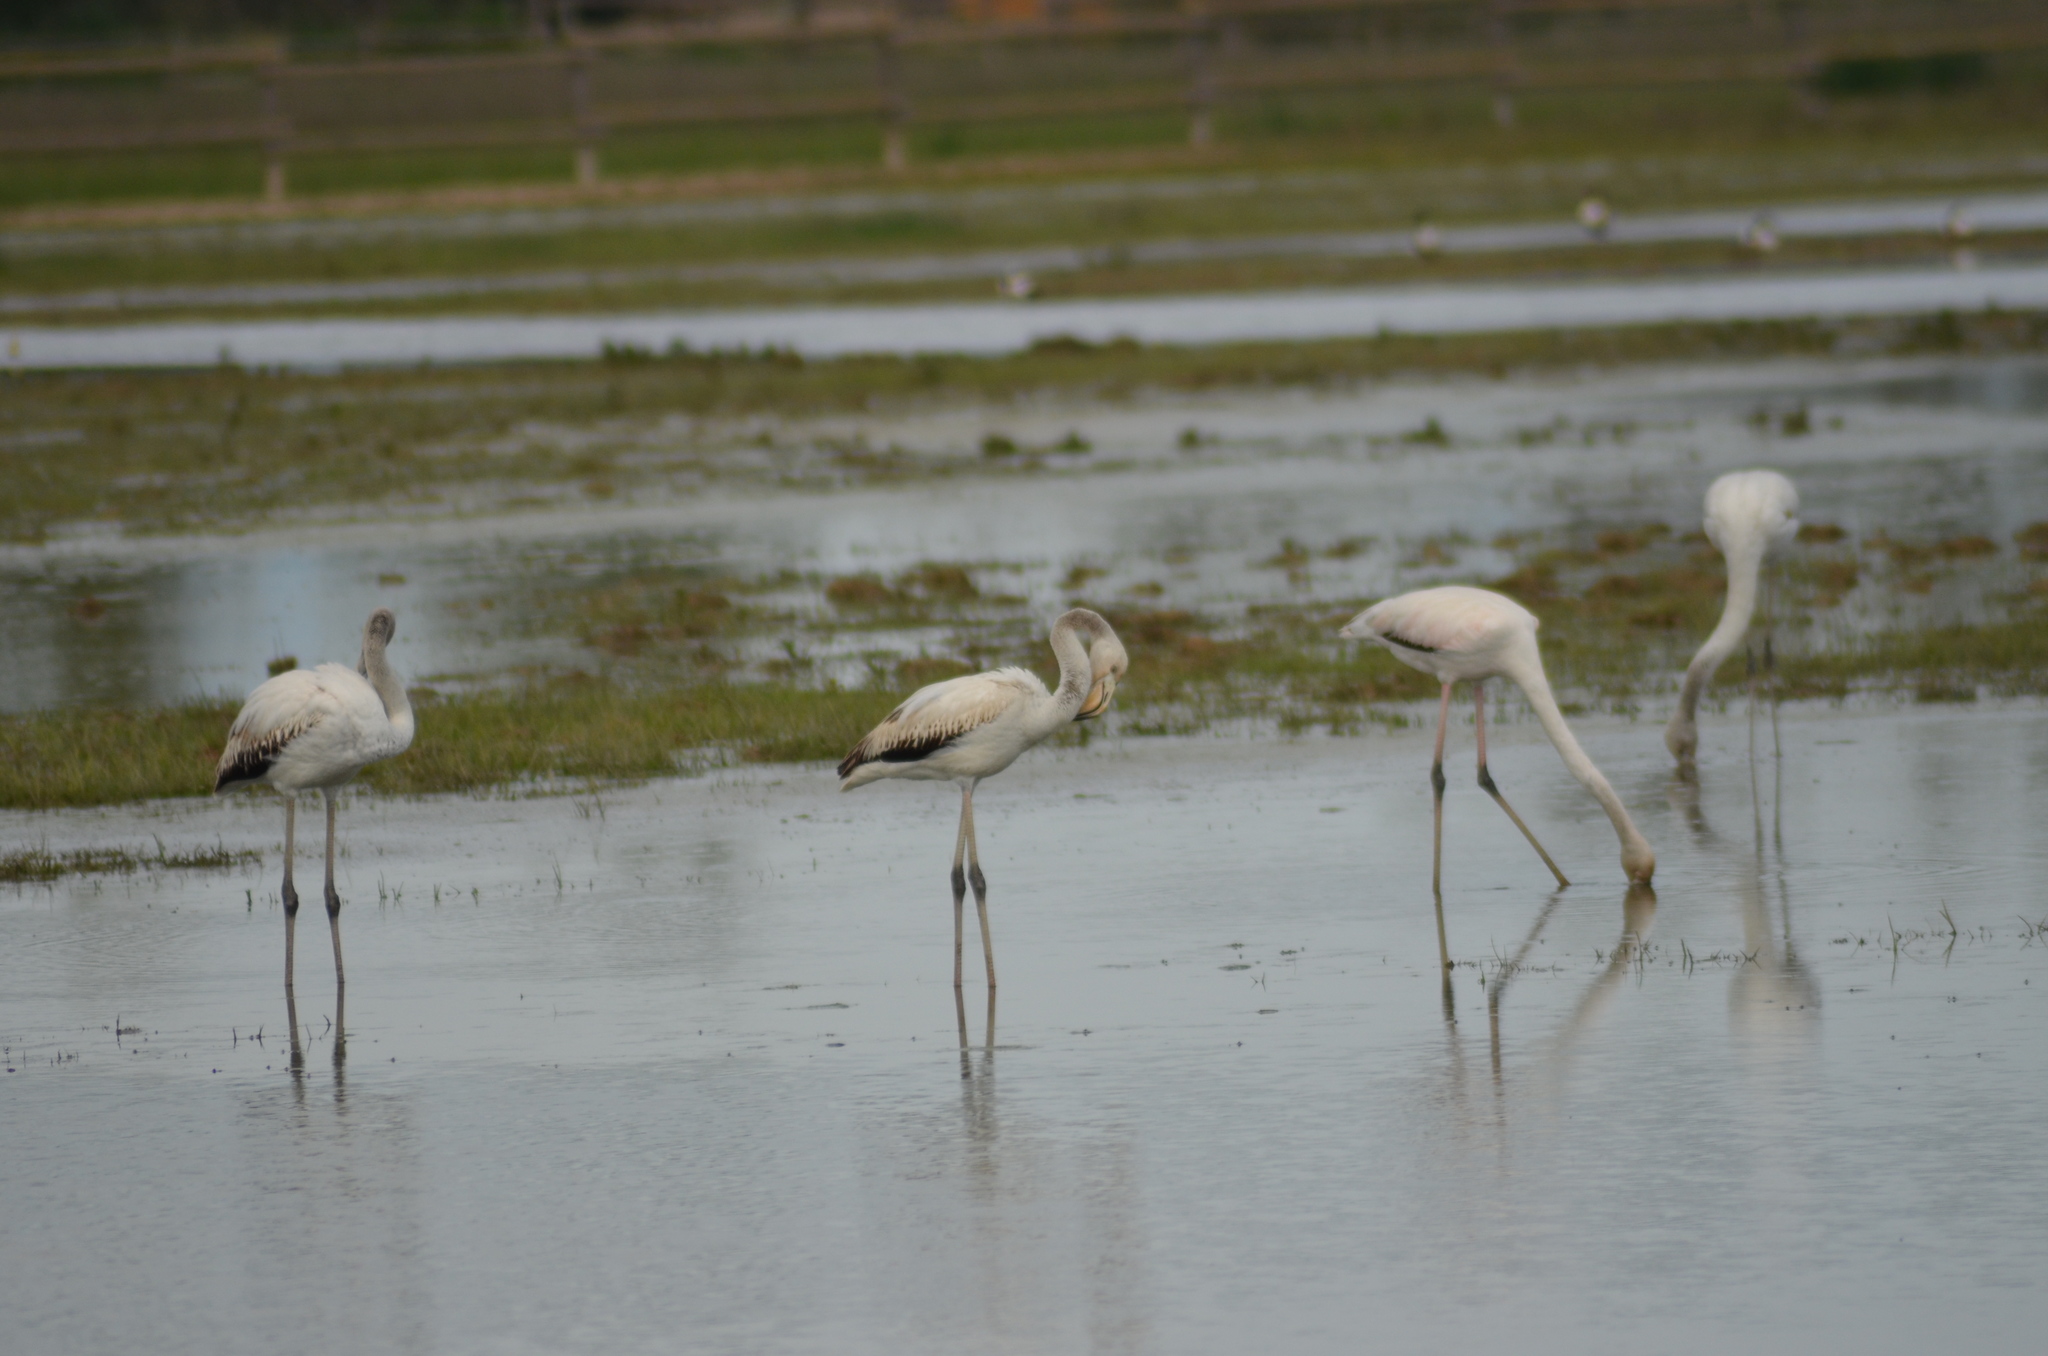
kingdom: Animalia
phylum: Chordata
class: Aves
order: Phoenicopteriformes
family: Phoenicopteridae
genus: Phoenicopterus
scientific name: Phoenicopterus roseus
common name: Greater flamingo
